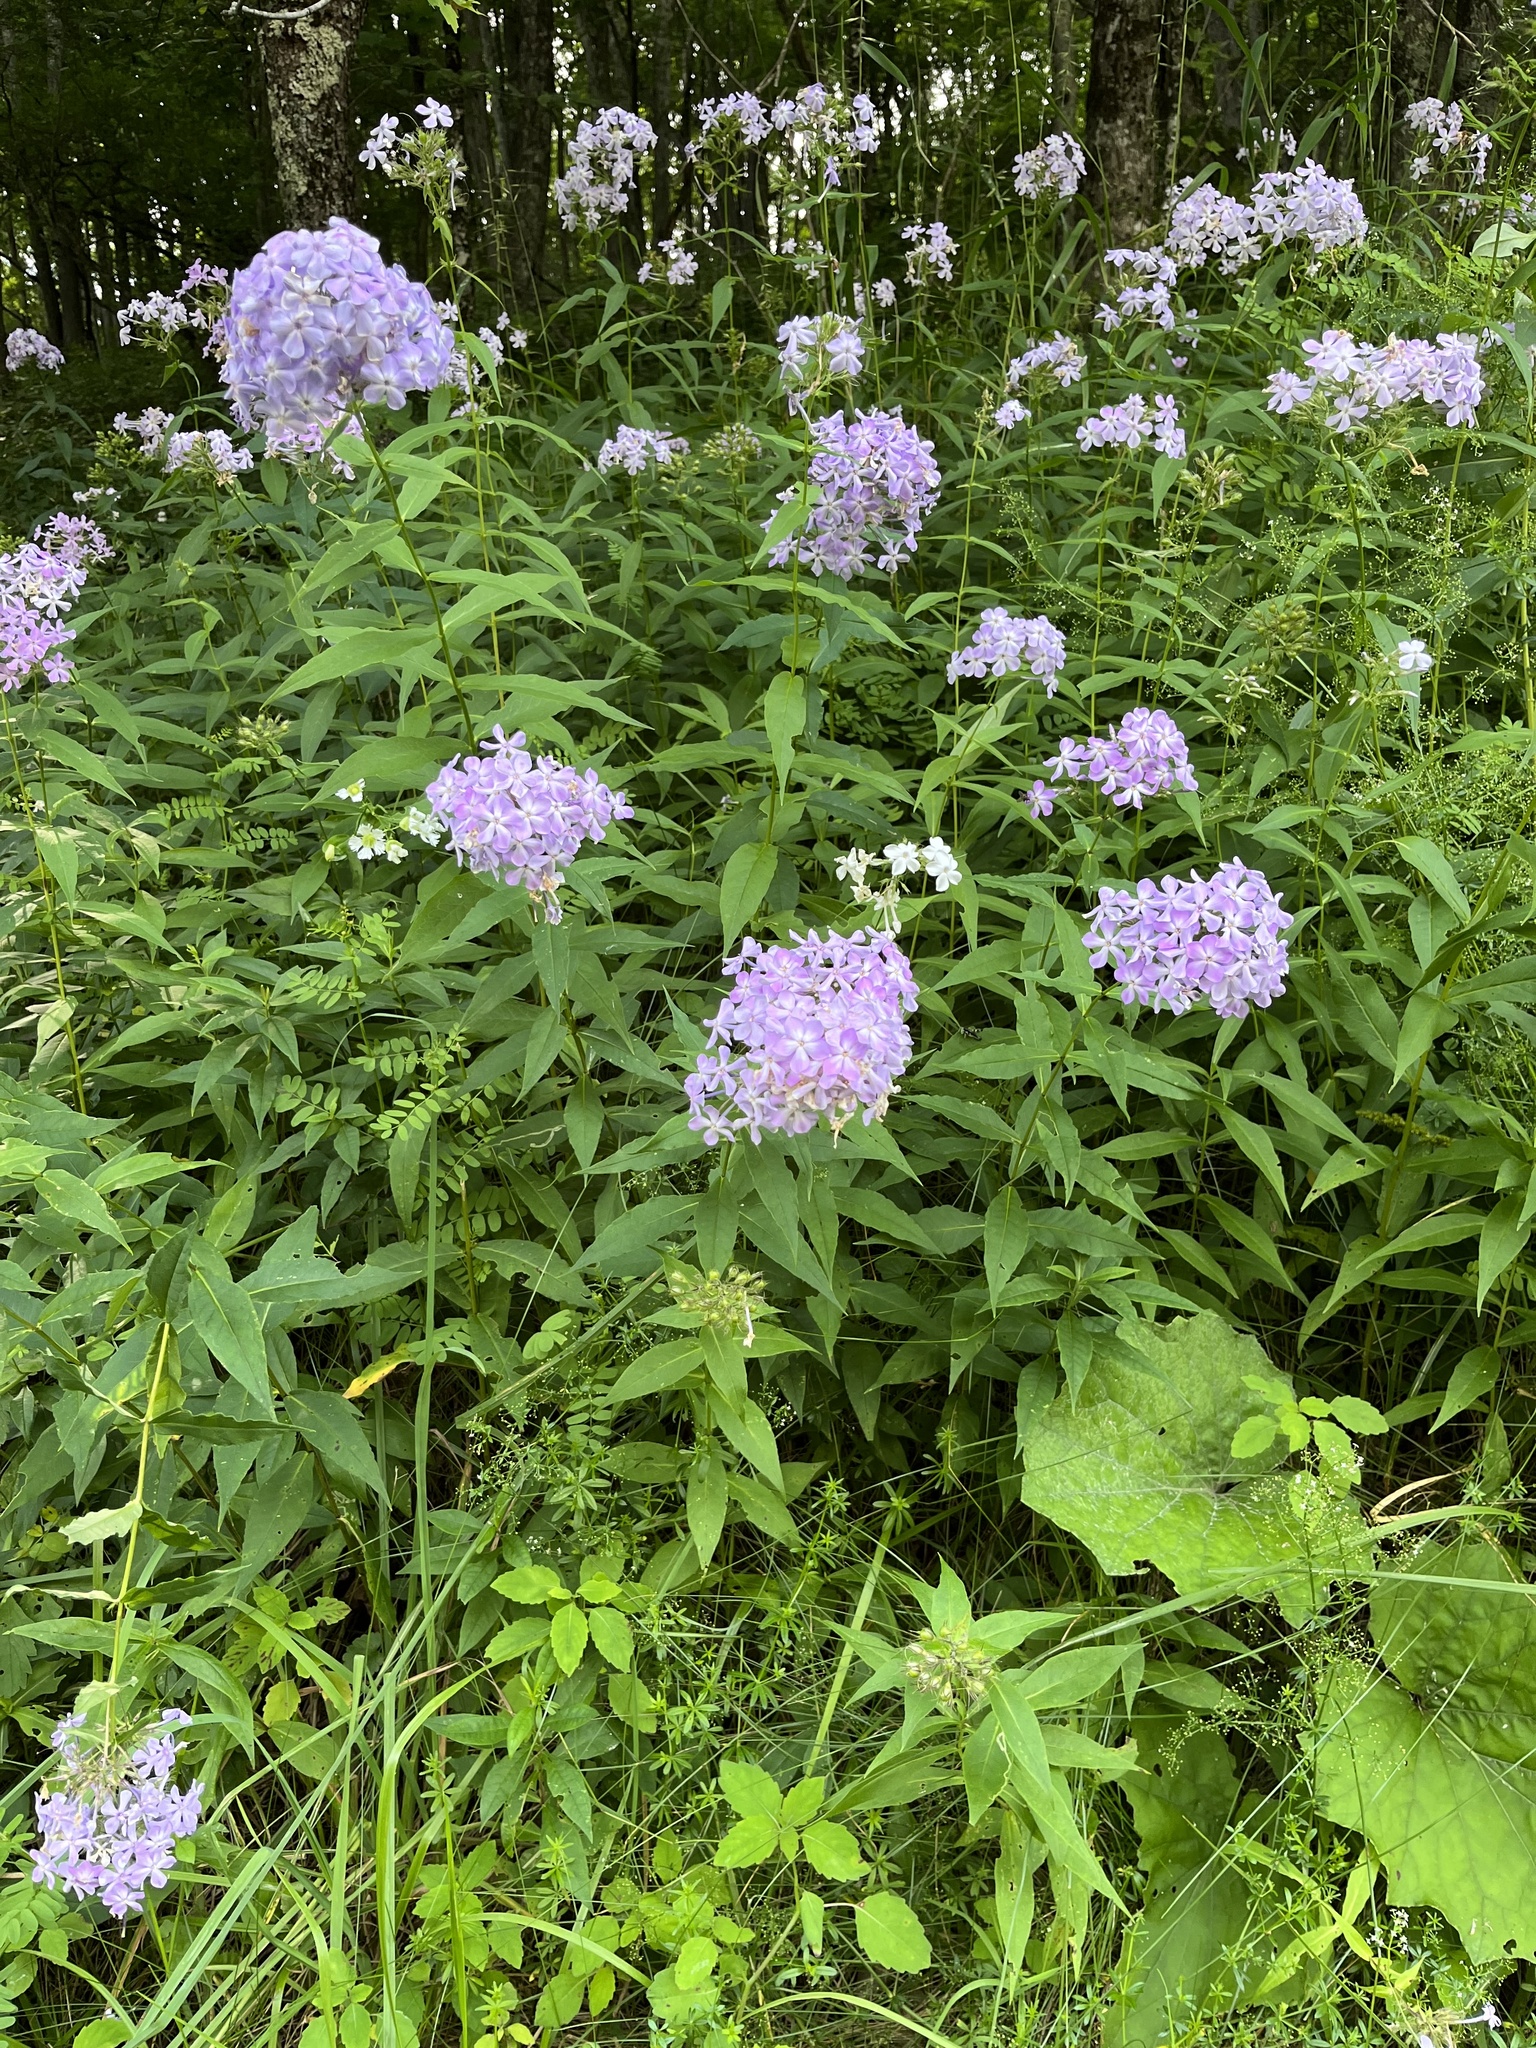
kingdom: Plantae
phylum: Tracheophyta
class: Magnoliopsida
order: Ericales
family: Polemoniaceae
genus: Phlox
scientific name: Phlox paniculata
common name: Fall phlox
